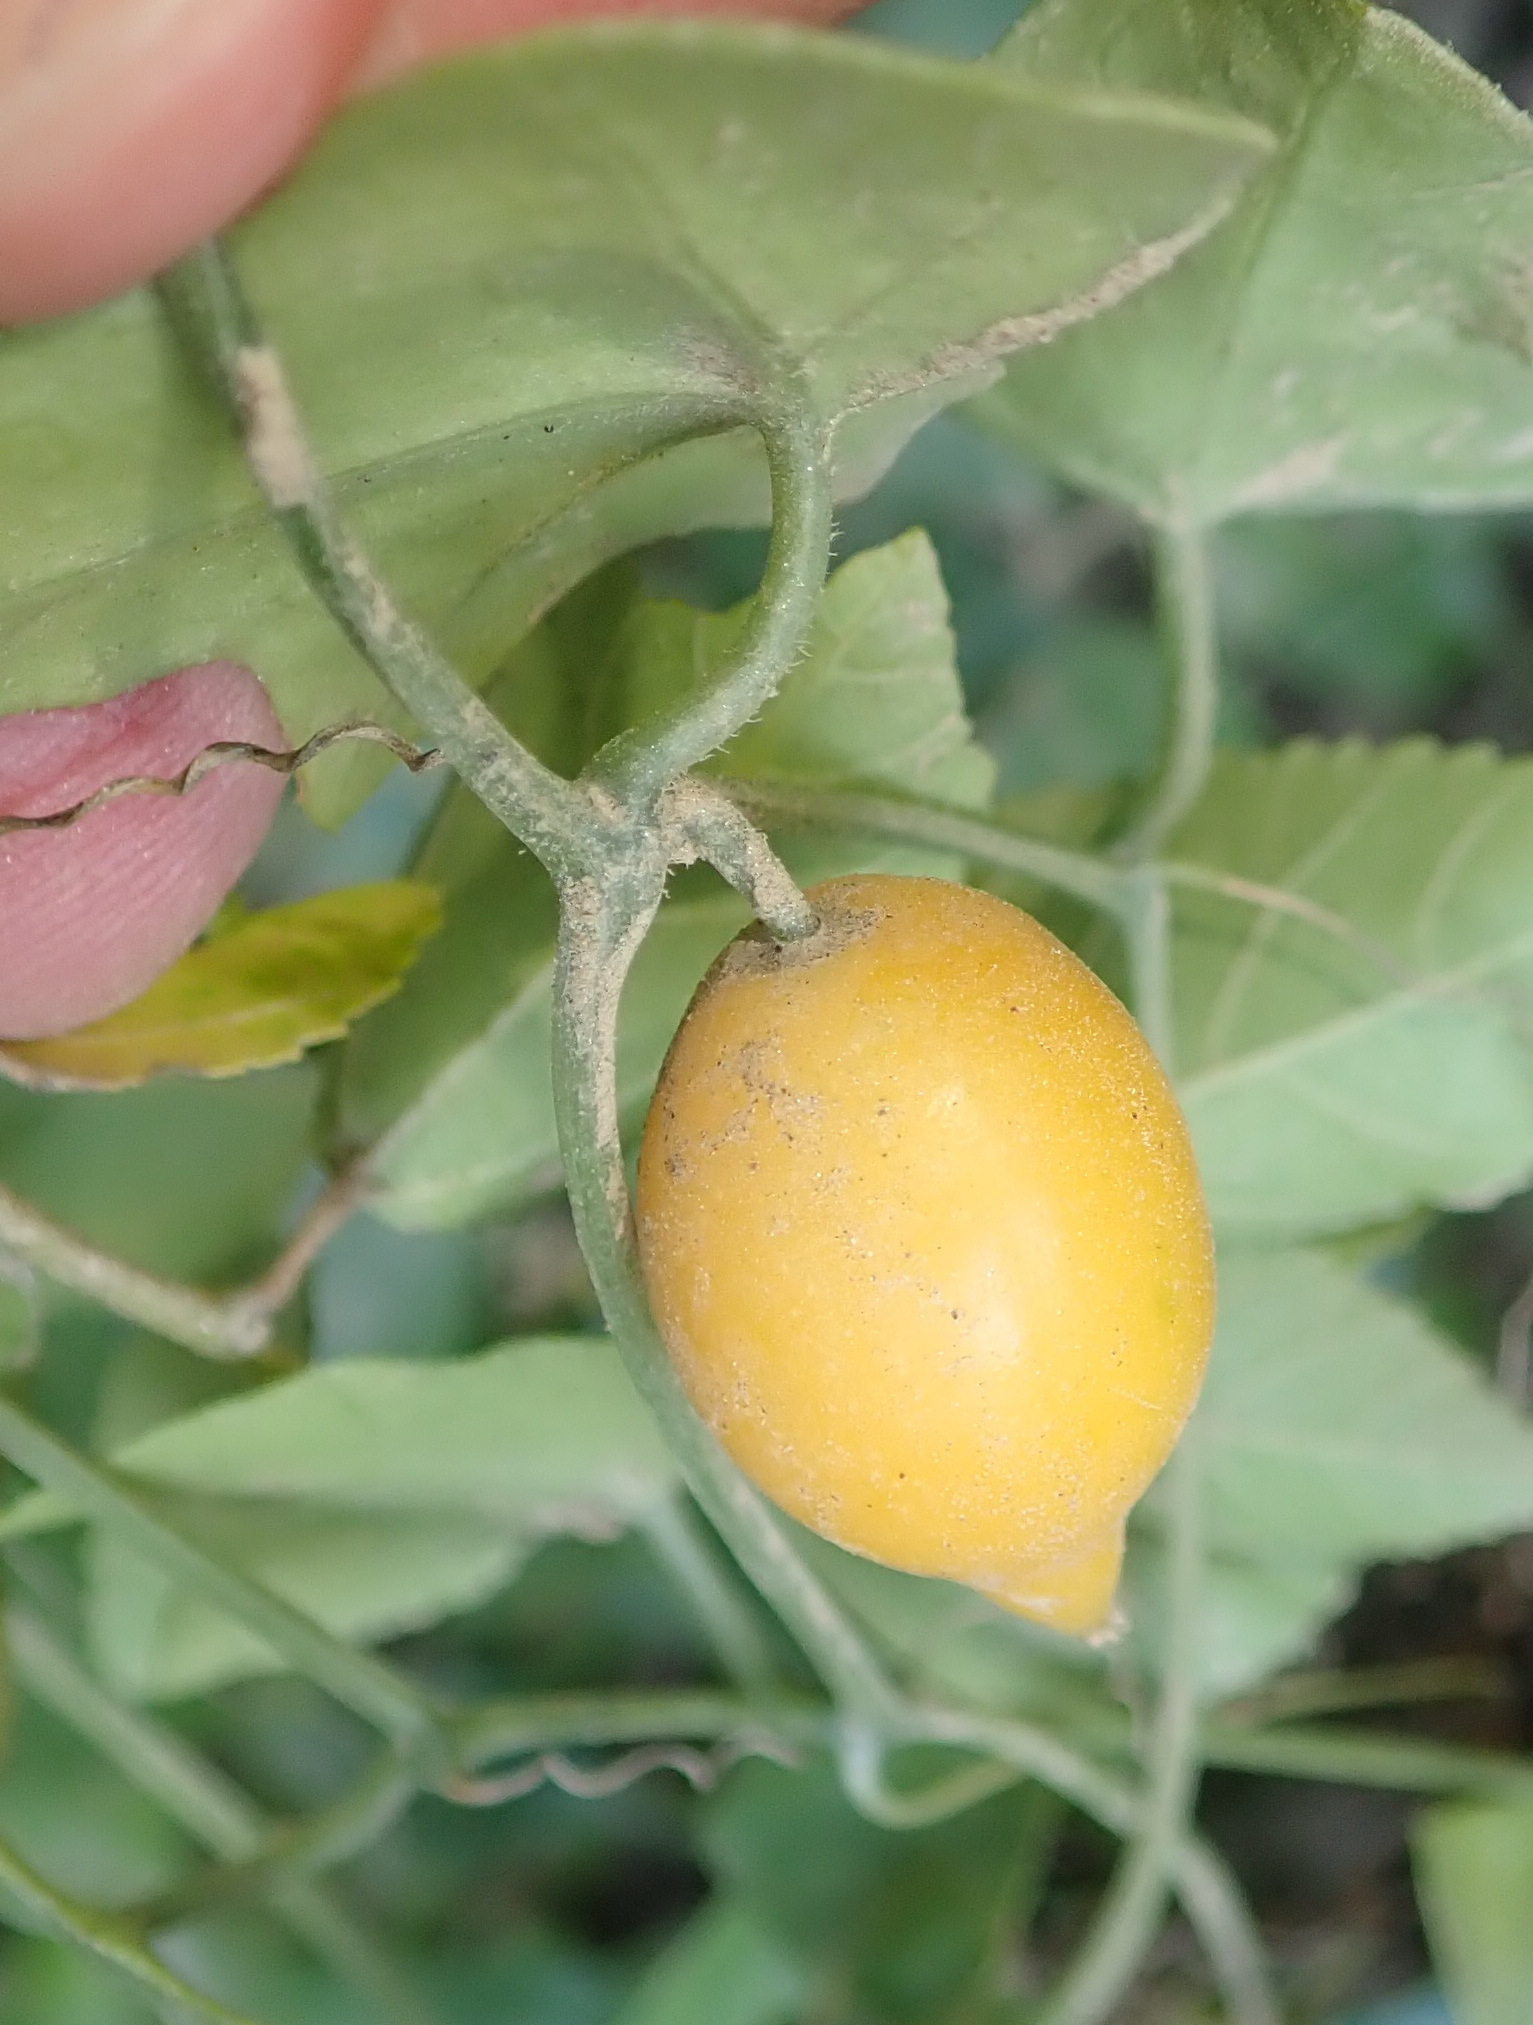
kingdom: Plantae
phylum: Tracheophyta
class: Magnoliopsida
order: Cucurbitales
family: Cucurbitaceae
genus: Kedrostis
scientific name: Kedrostis nana
